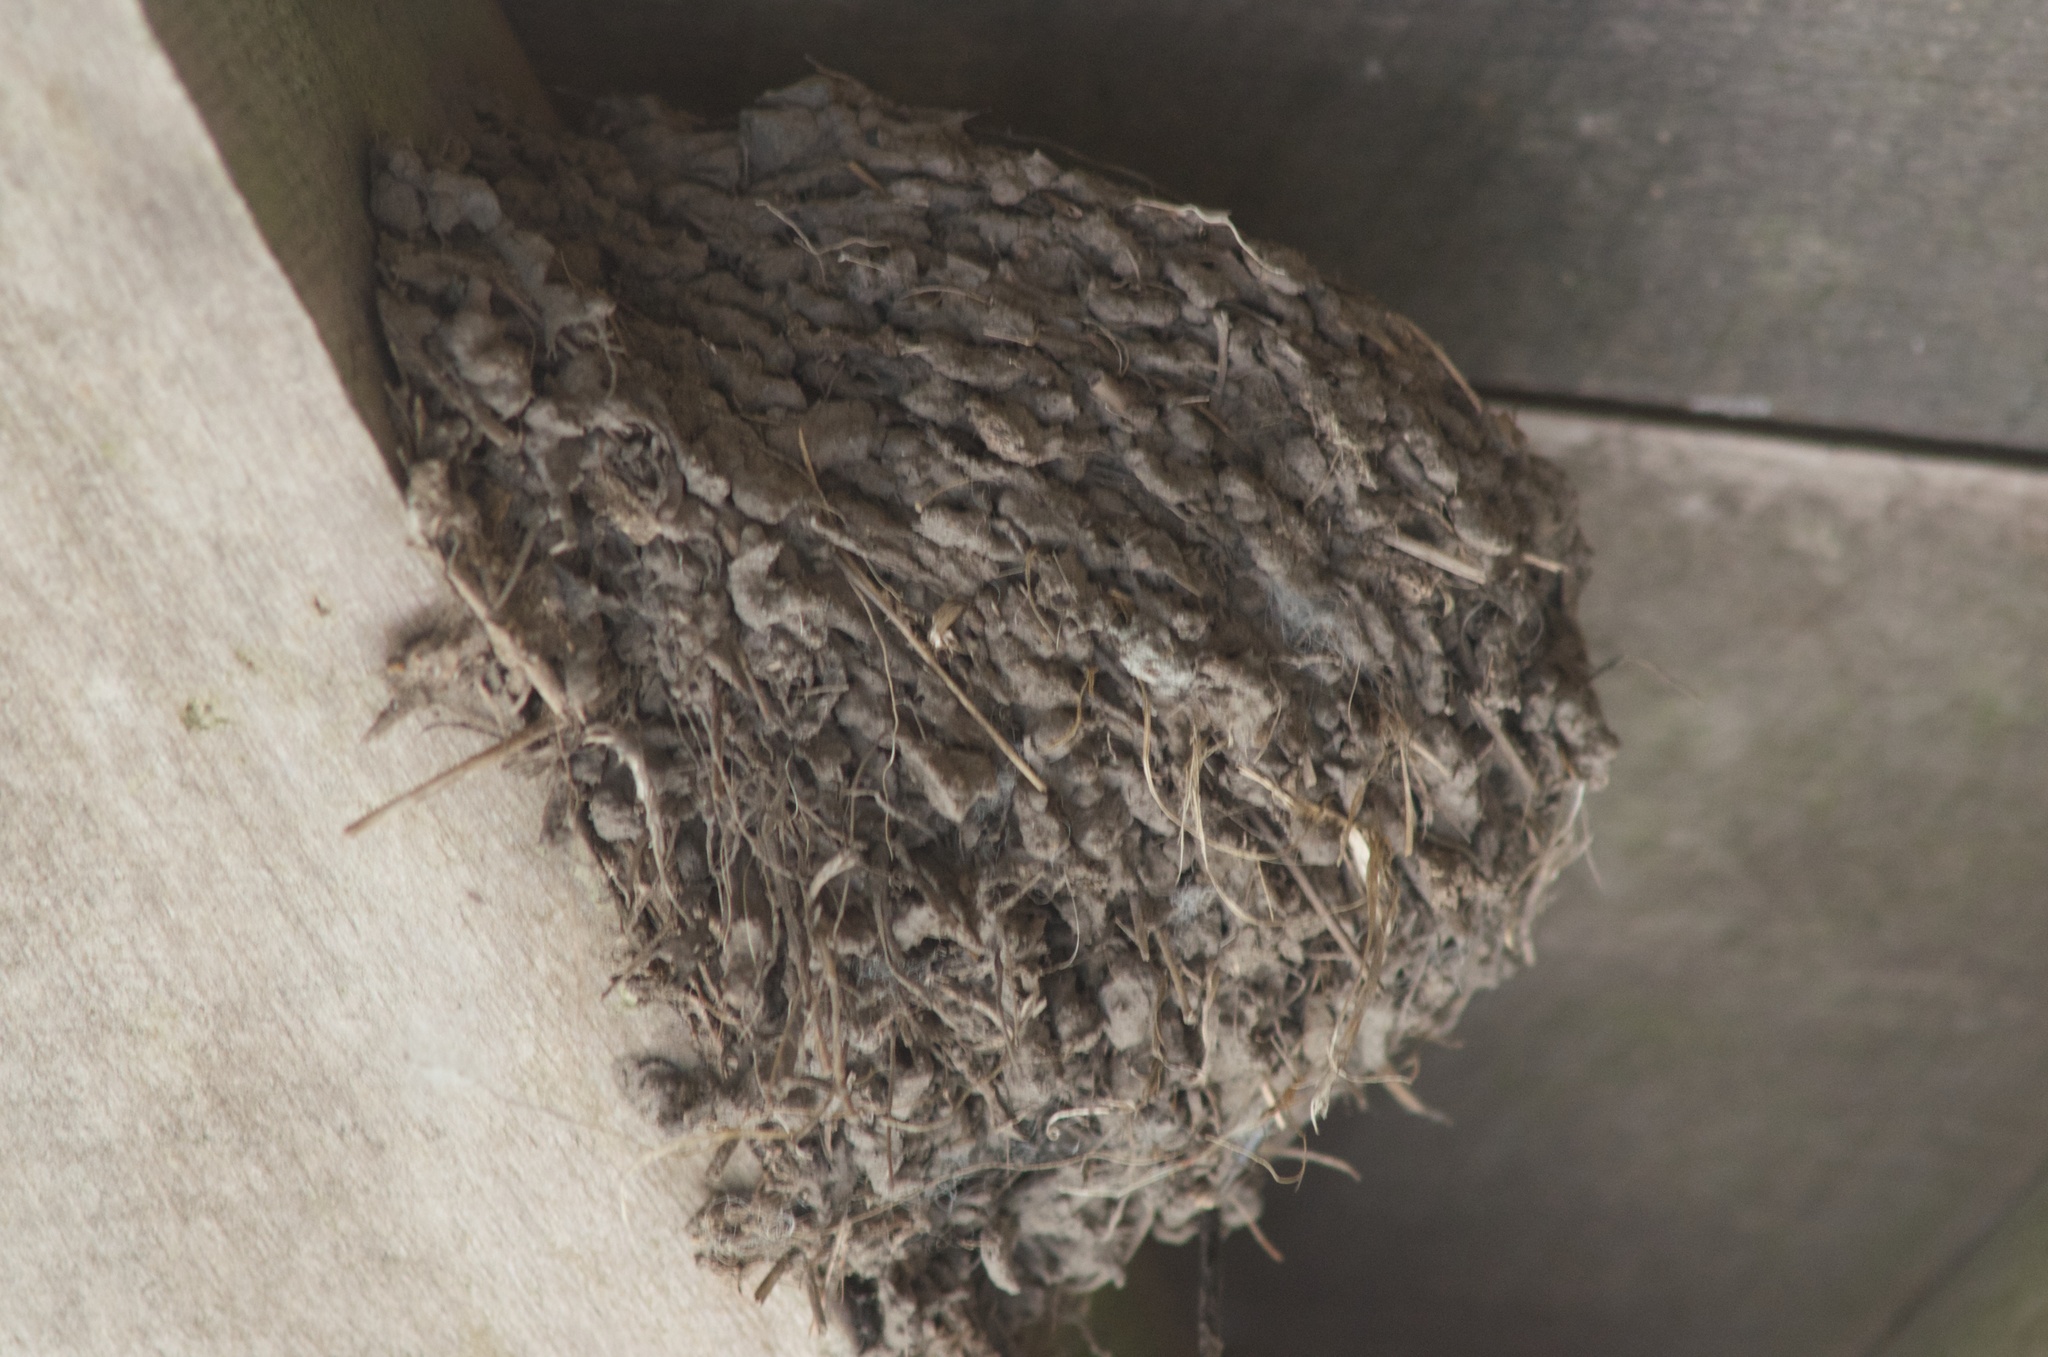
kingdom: Animalia
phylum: Chordata
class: Aves
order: Passeriformes
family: Hirundinidae
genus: Hirundo
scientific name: Hirundo neoxena
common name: Welcome swallow
